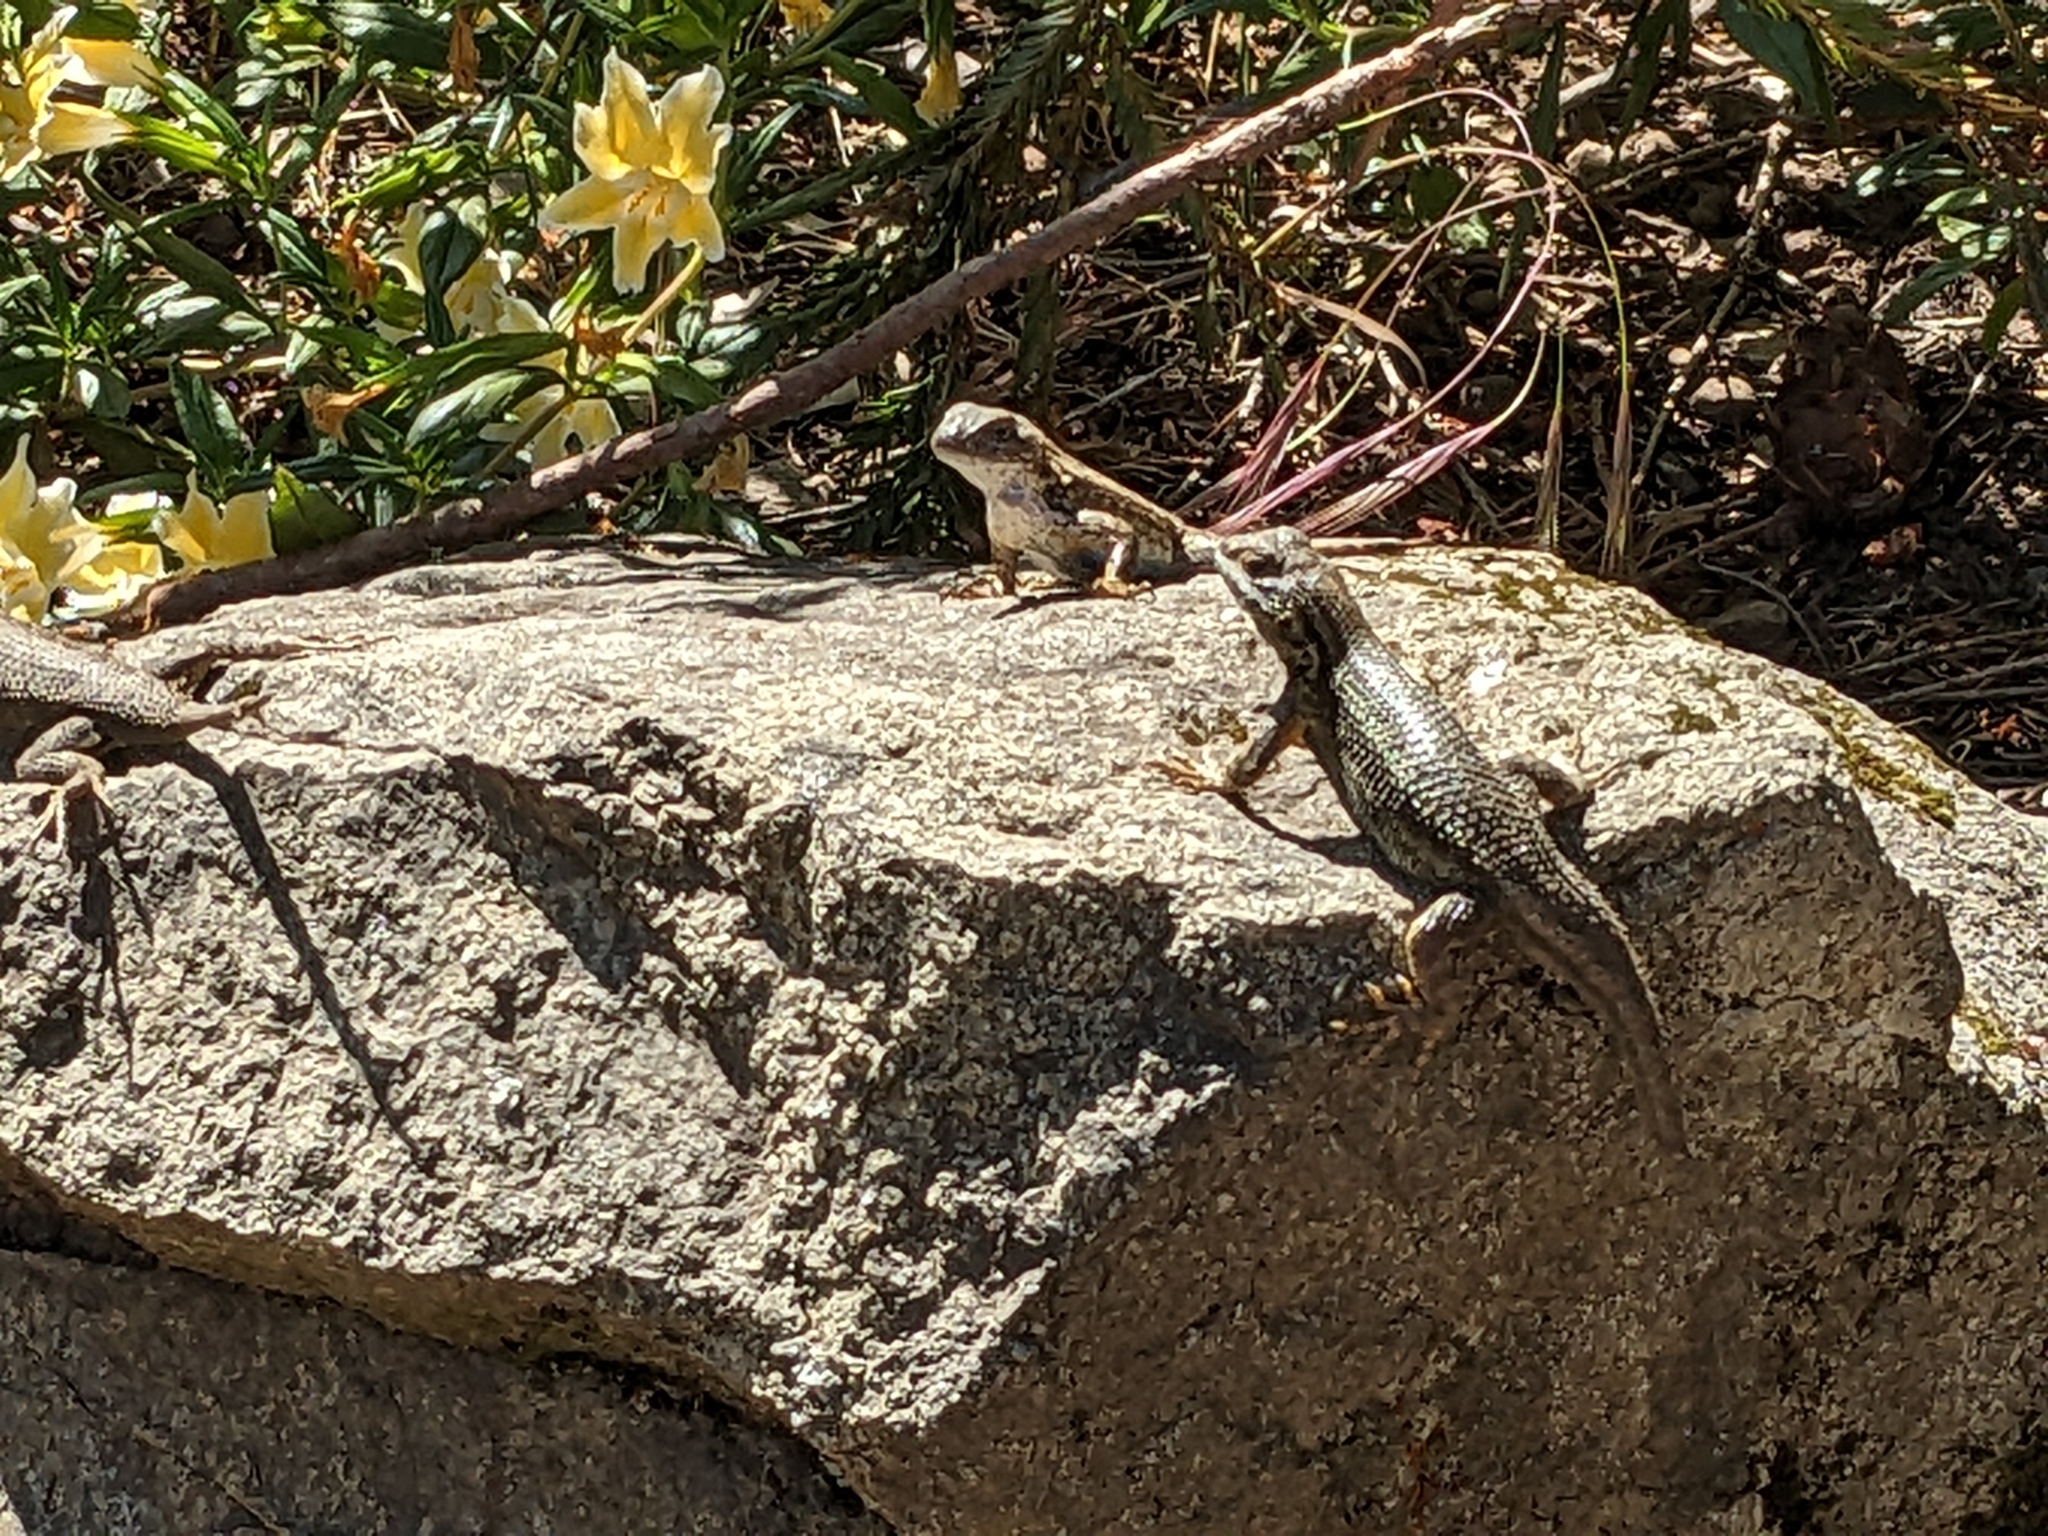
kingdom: Animalia
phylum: Chordata
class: Squamata
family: Phrynosomatidae
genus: Sceloporus
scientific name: Sceloporus occidentalis
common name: Western fence lizard
